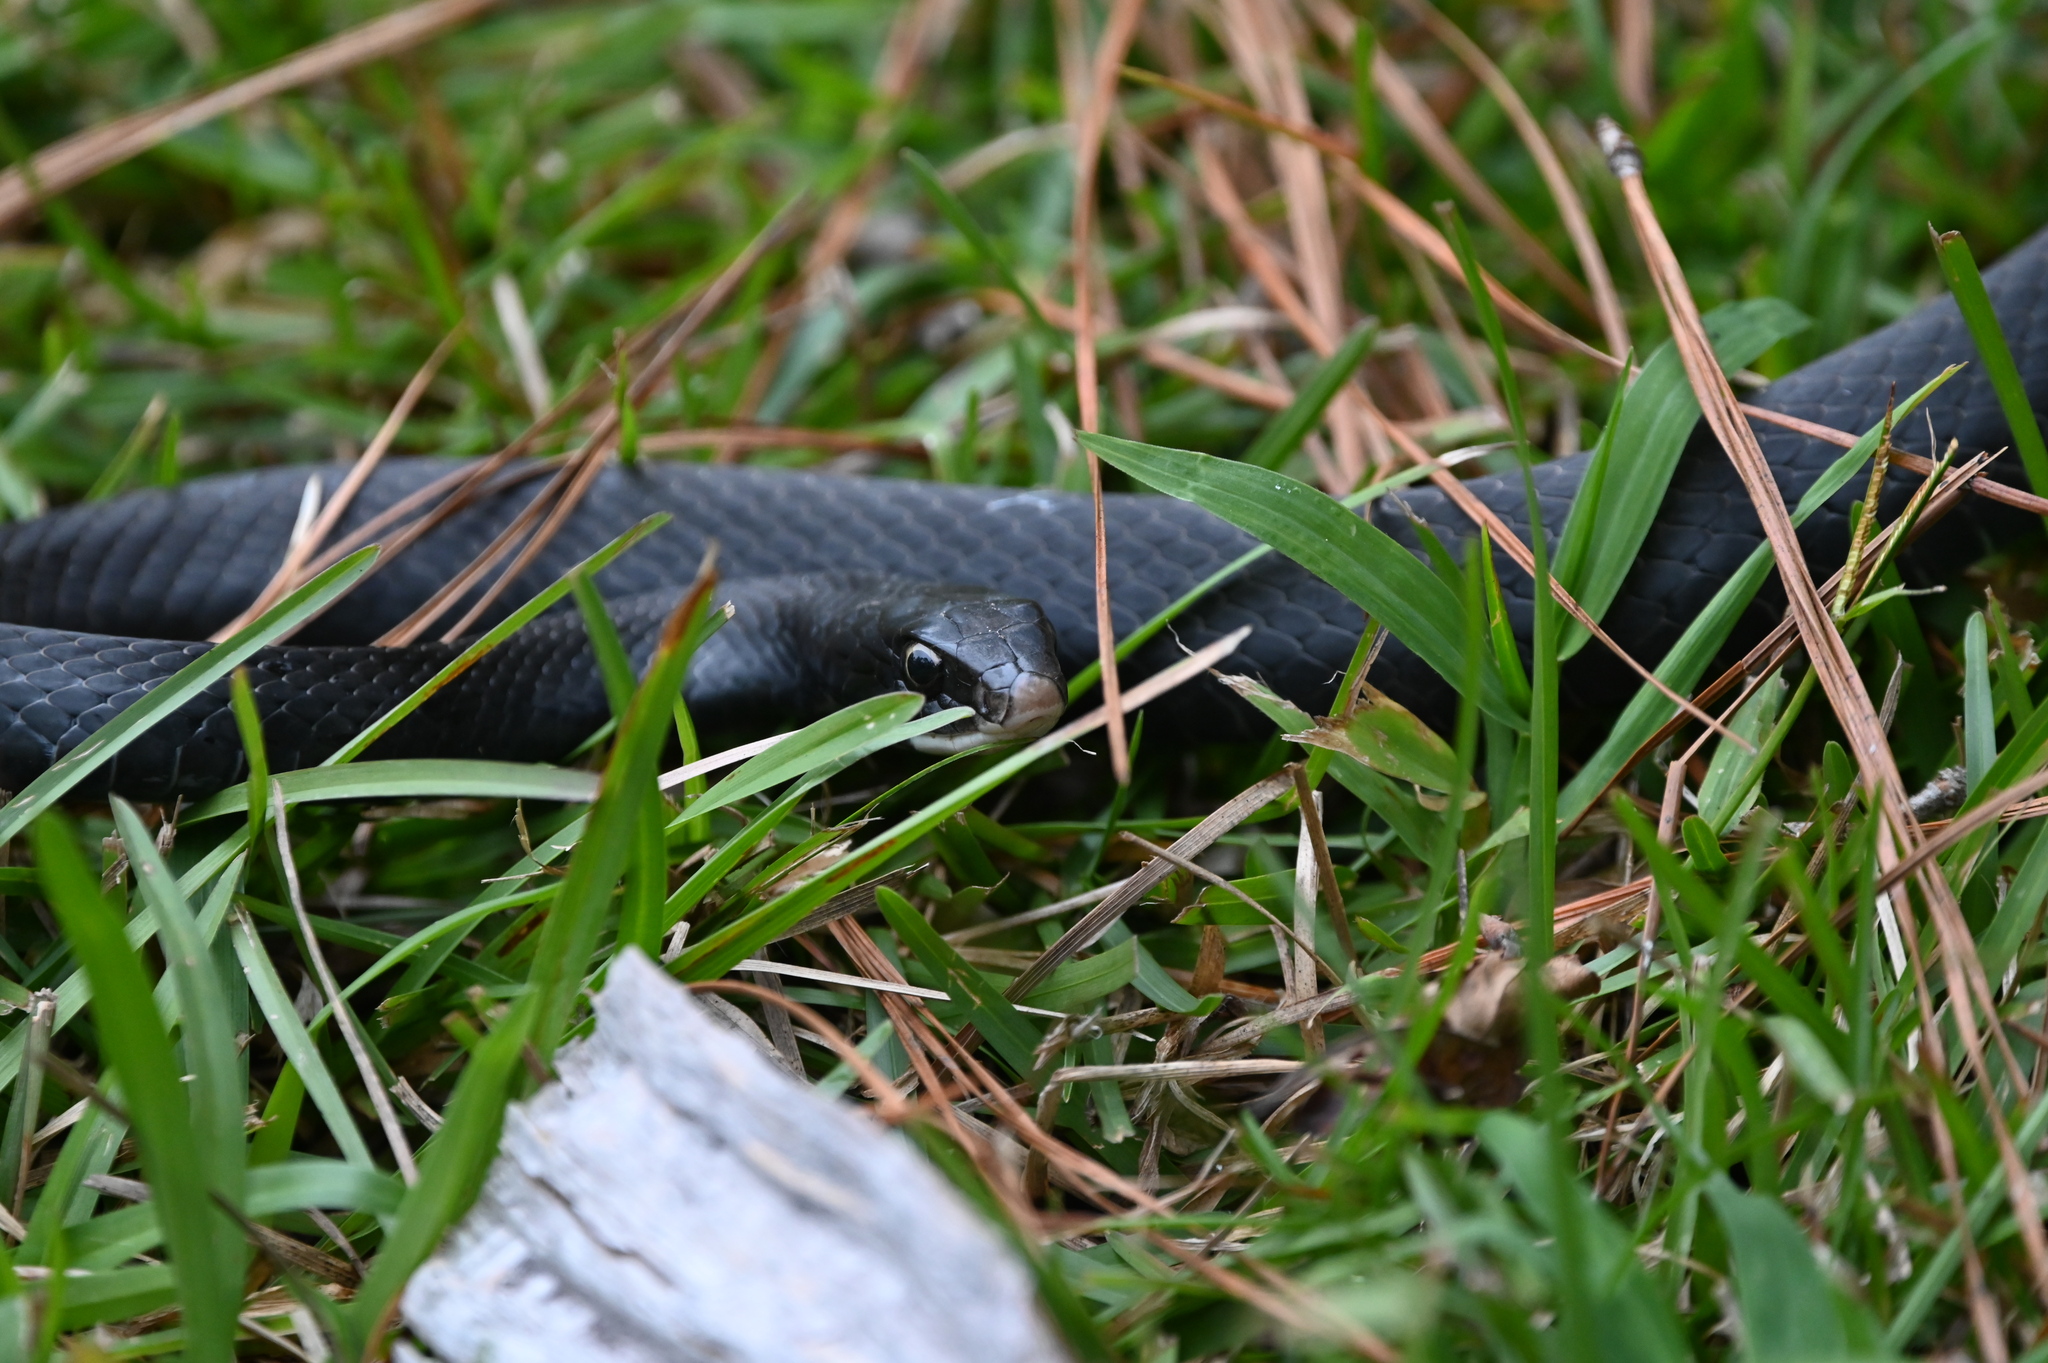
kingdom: Animalia
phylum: Chordata
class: Squamata
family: Colubridae
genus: Coluber
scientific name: Coluber constrictor
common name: Eastern racer
